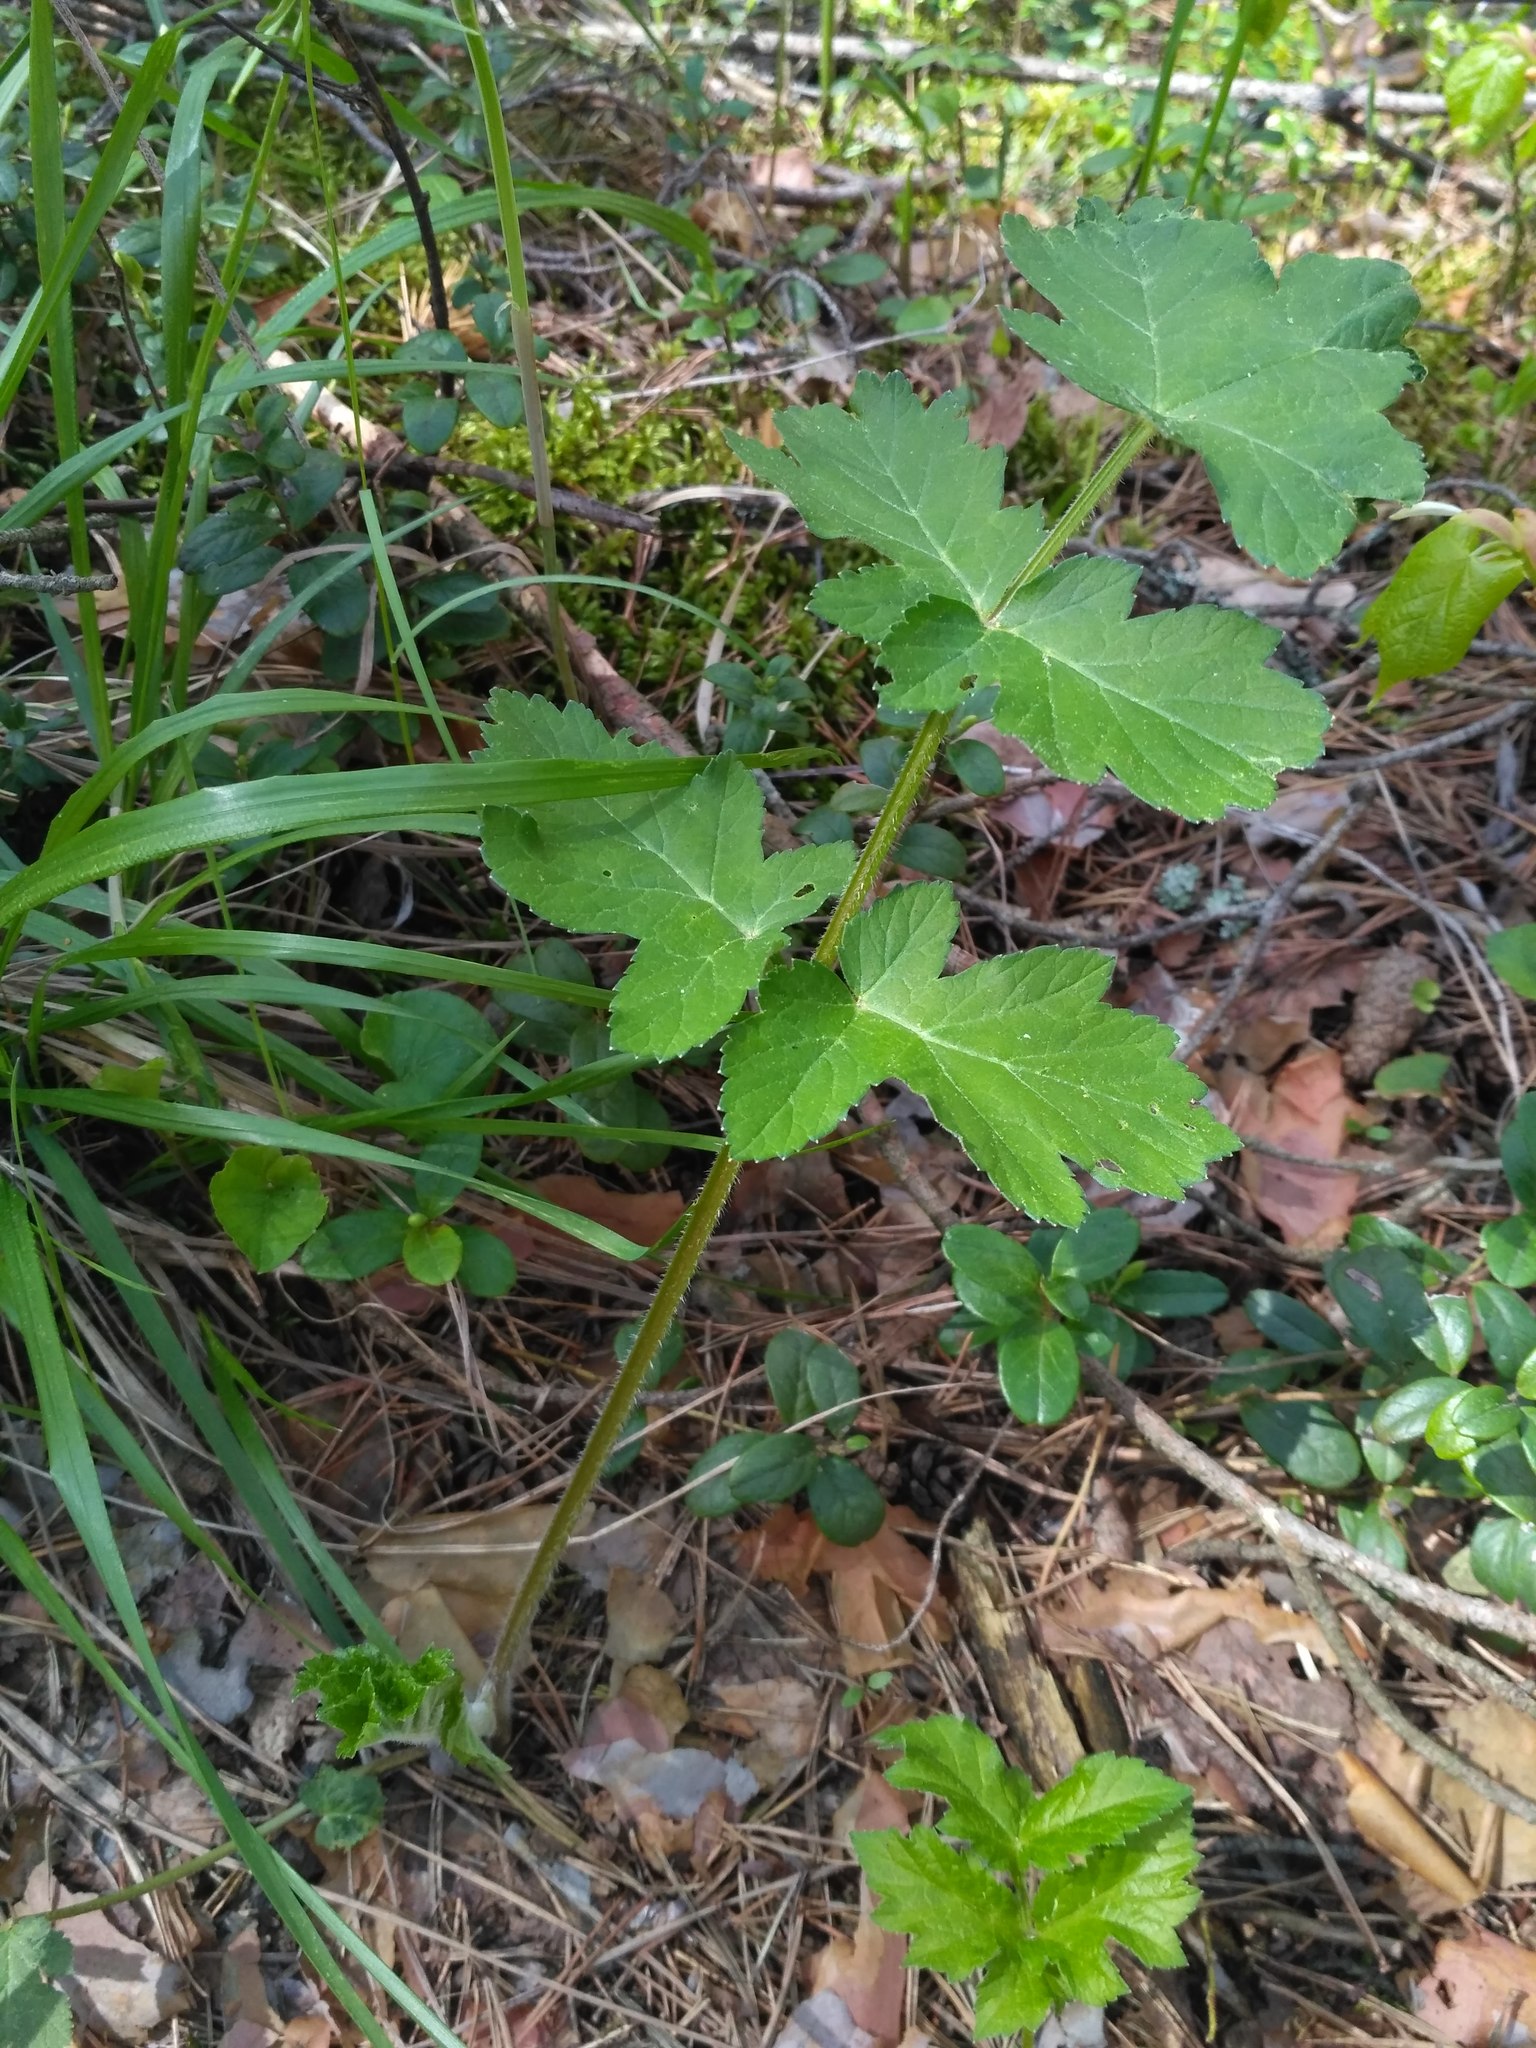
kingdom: Plantae
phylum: Tracheophyta
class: Magnoliopsida
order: Apiales
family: Apiaceae
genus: Heracleum
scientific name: Heracleum sphondylium
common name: Hogweed
